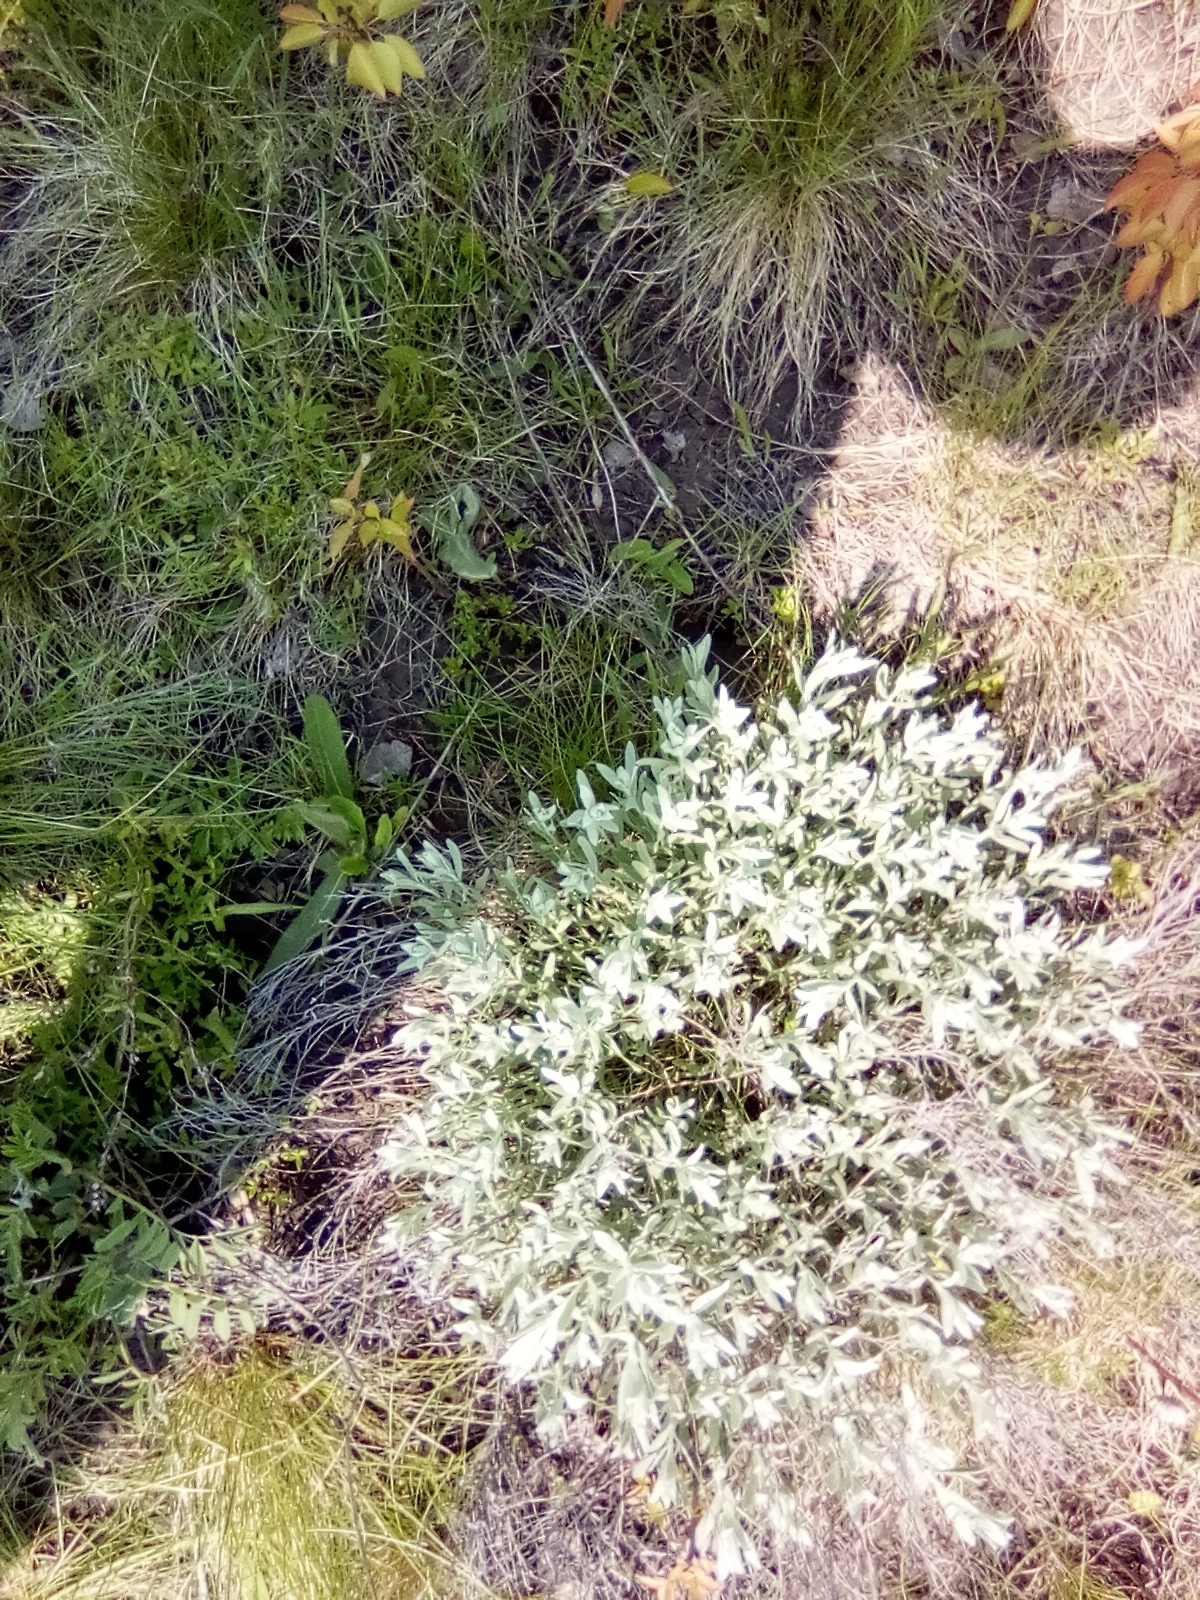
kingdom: Plantae
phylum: Tracheophyta
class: Magnoliopsida
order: Lamiales
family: Lamiaceae
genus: Teucrium
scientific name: Teucrium polium
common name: Poley
